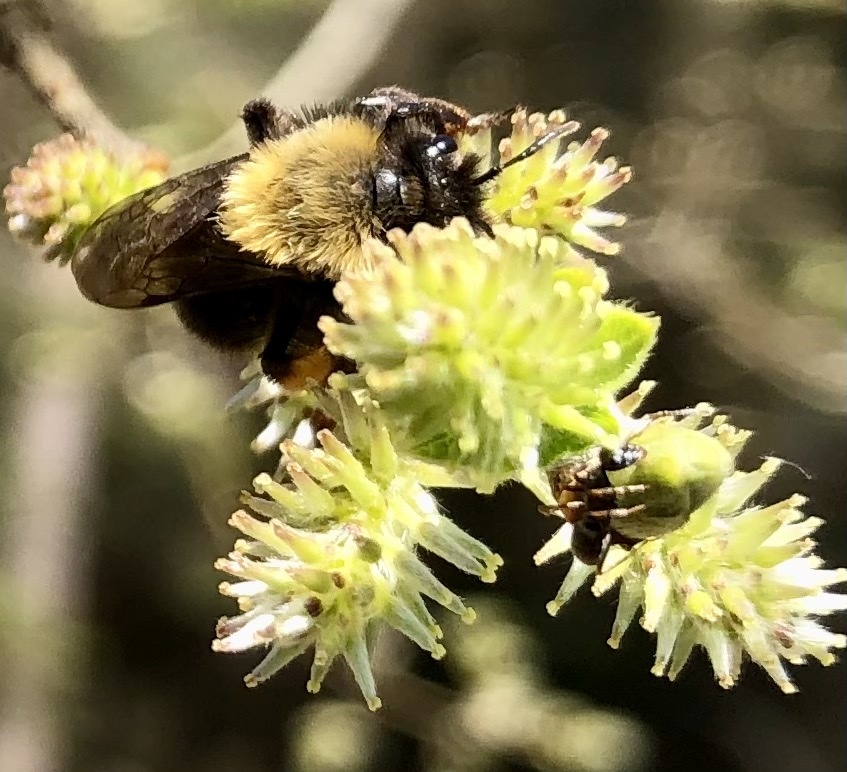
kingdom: Animalia
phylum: Arthropoda
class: Insecta
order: Hymenoptera
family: Andrenidae
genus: Andrena
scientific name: Andrena clarkella
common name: Clarke's mining bee
